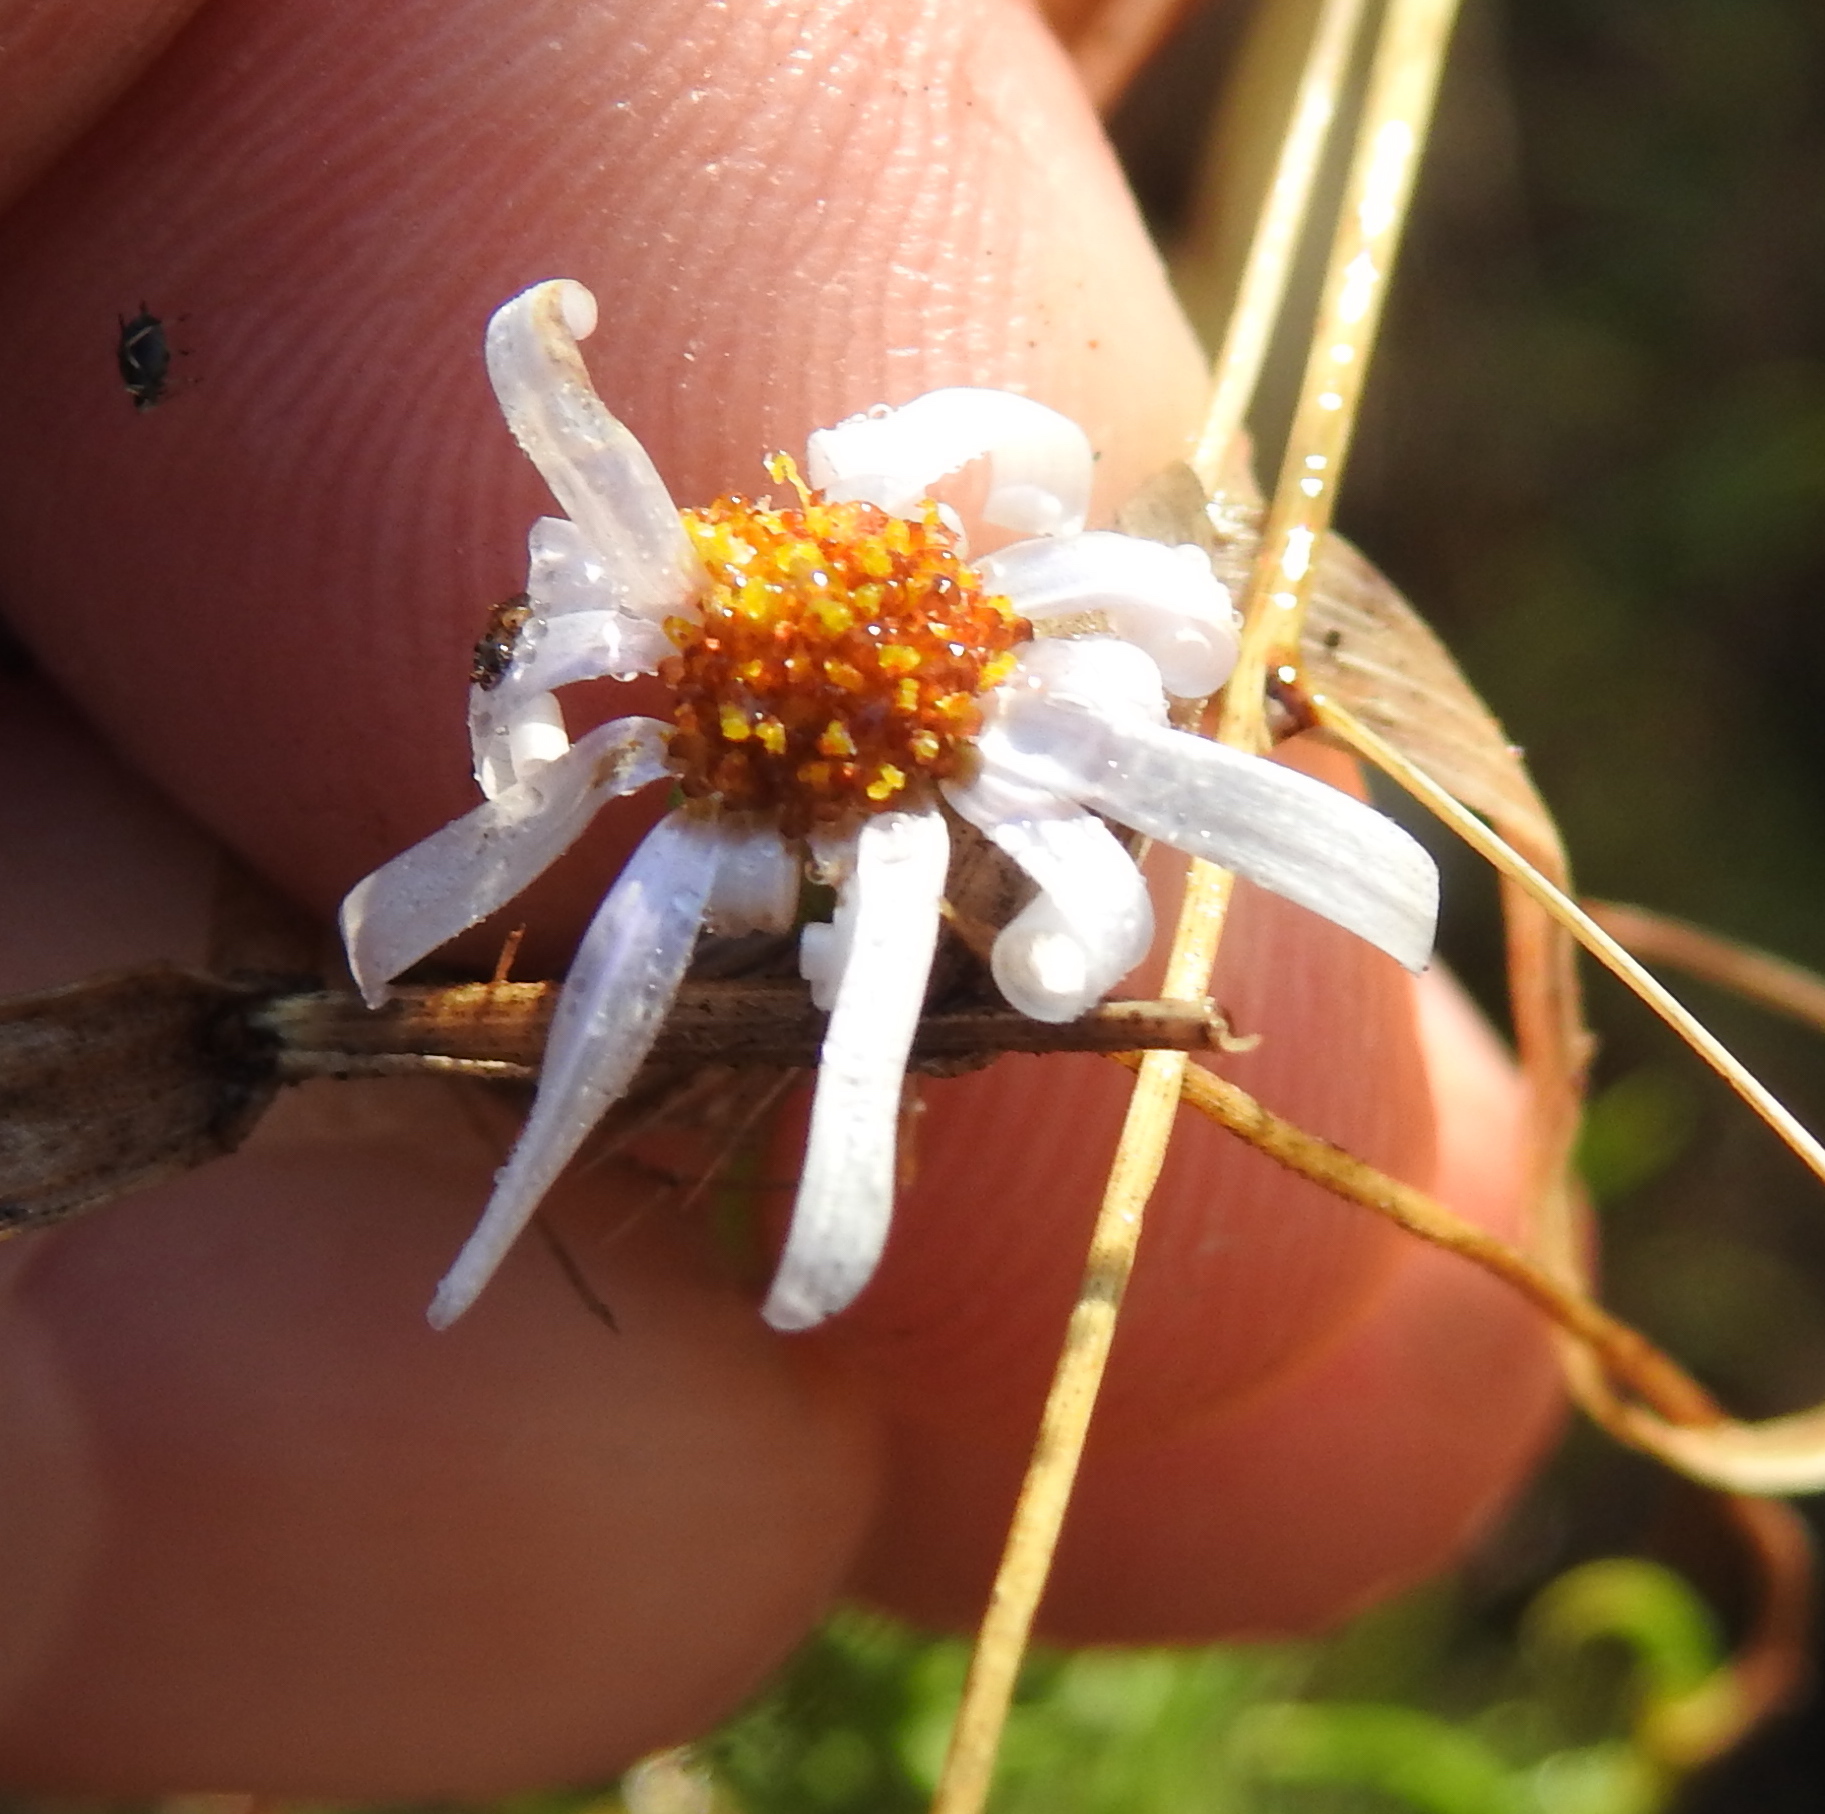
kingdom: Plantae
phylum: Tracheophyta
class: Magnoliopsida
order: Asterales
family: Asteraceae
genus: Felicia
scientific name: Felicia muricata
